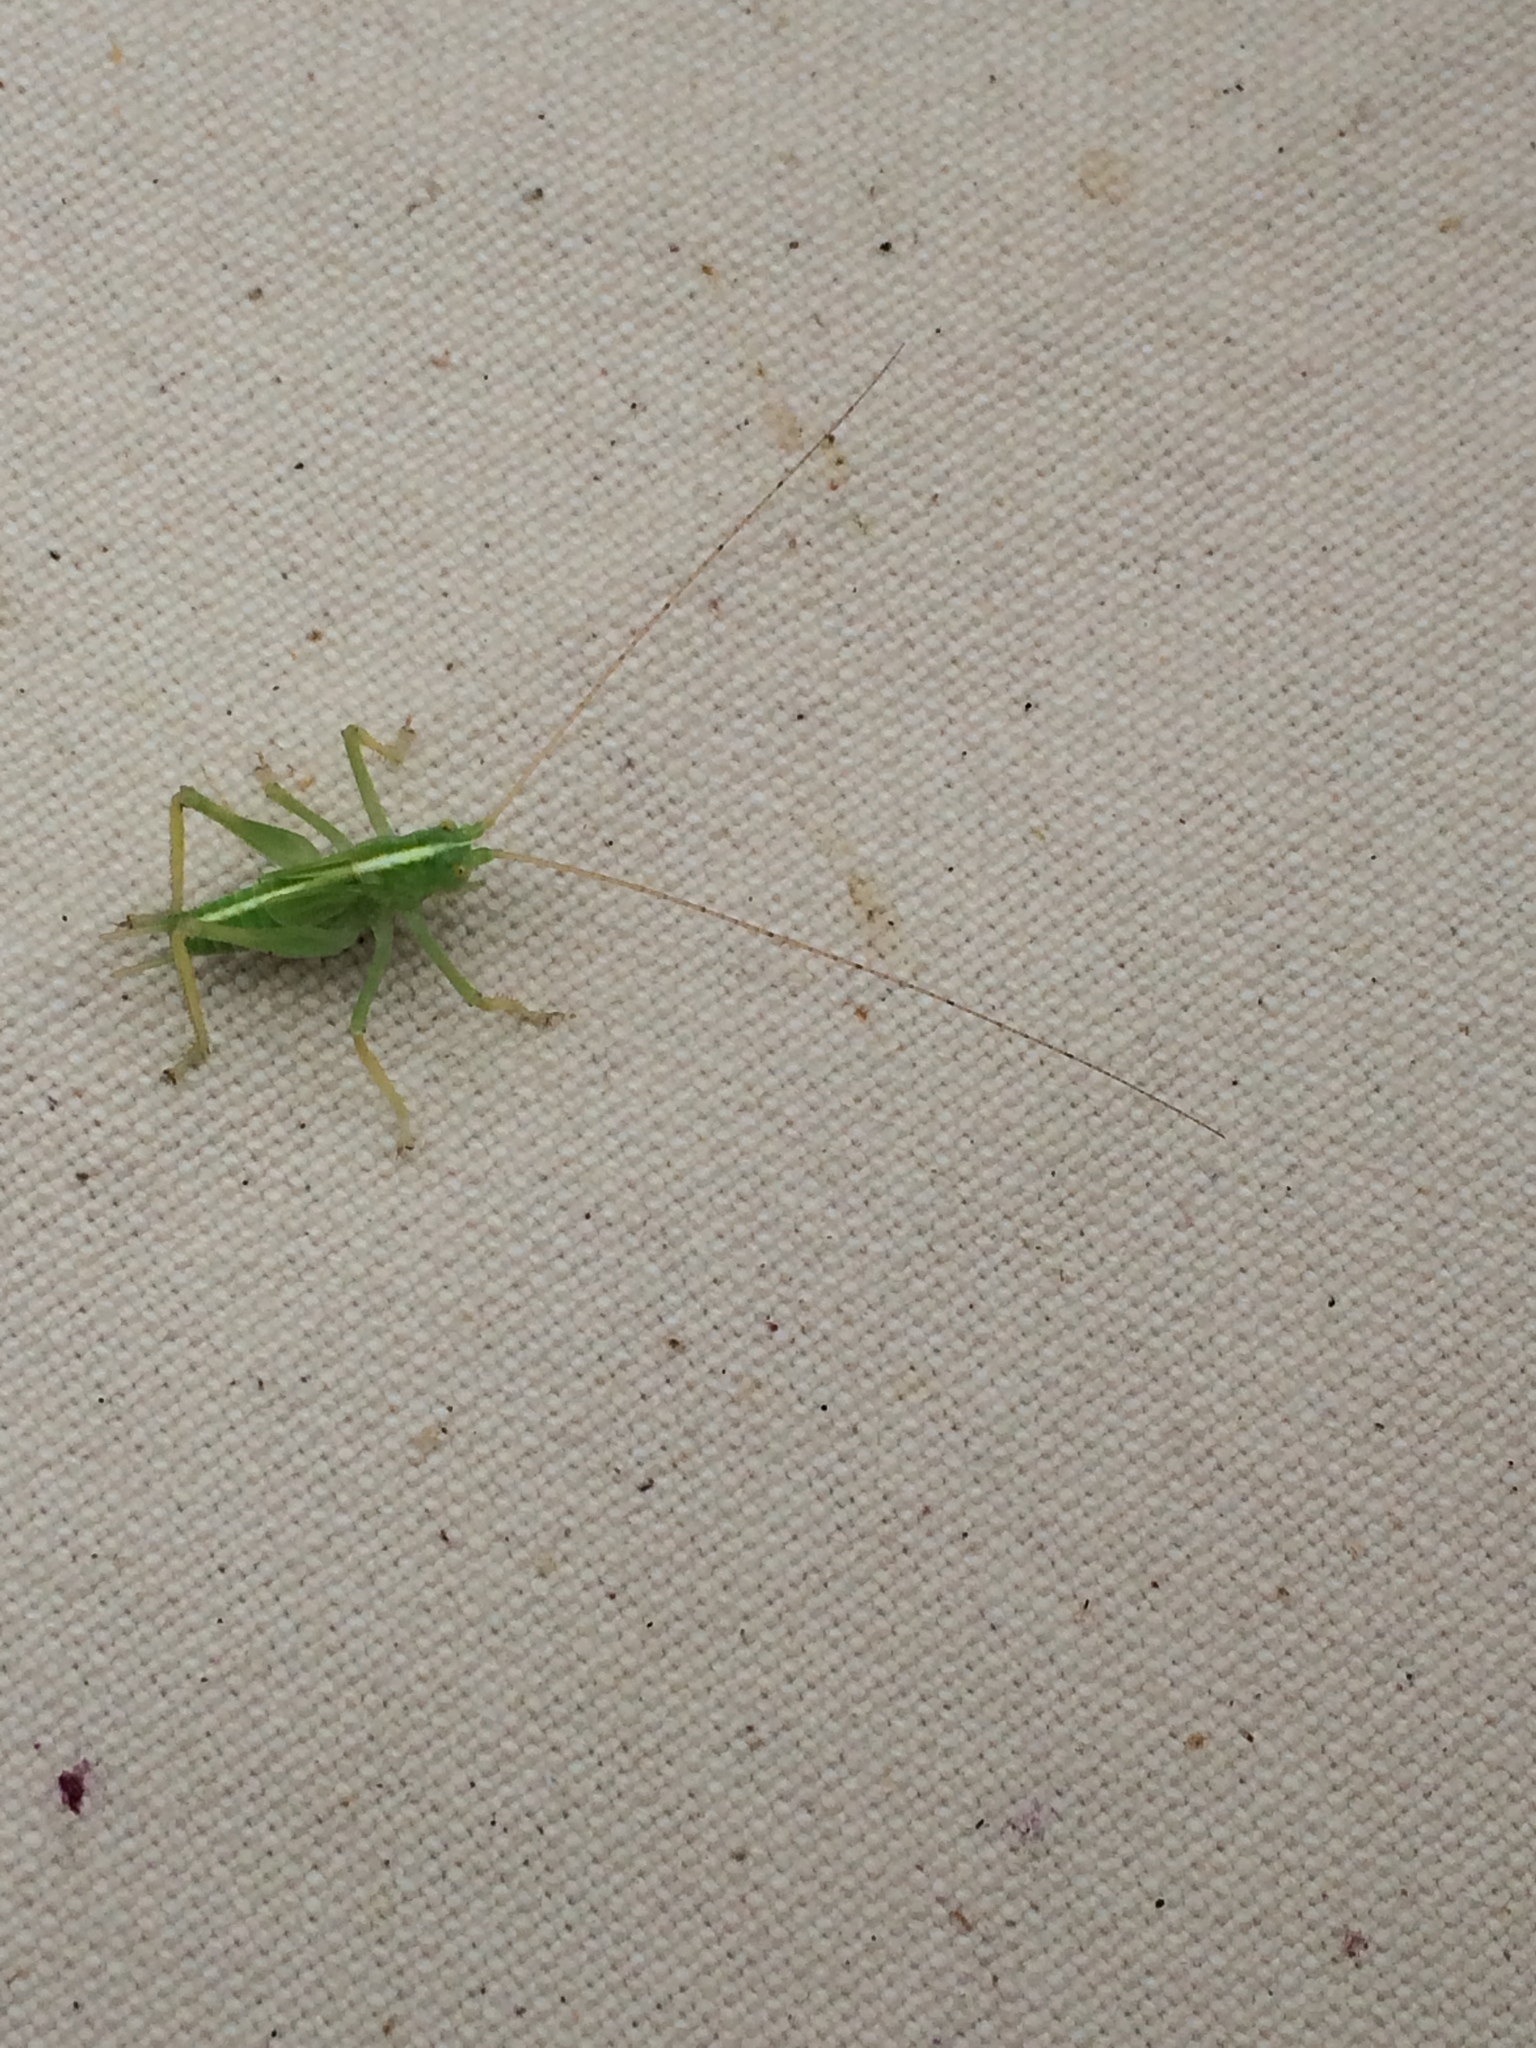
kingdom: Animalia
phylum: Arthropoda
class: Insecta
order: Orthoptera
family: Tettigoniidae
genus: Meconema
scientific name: Meconema thalassinum
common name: Oak bush-cricket
